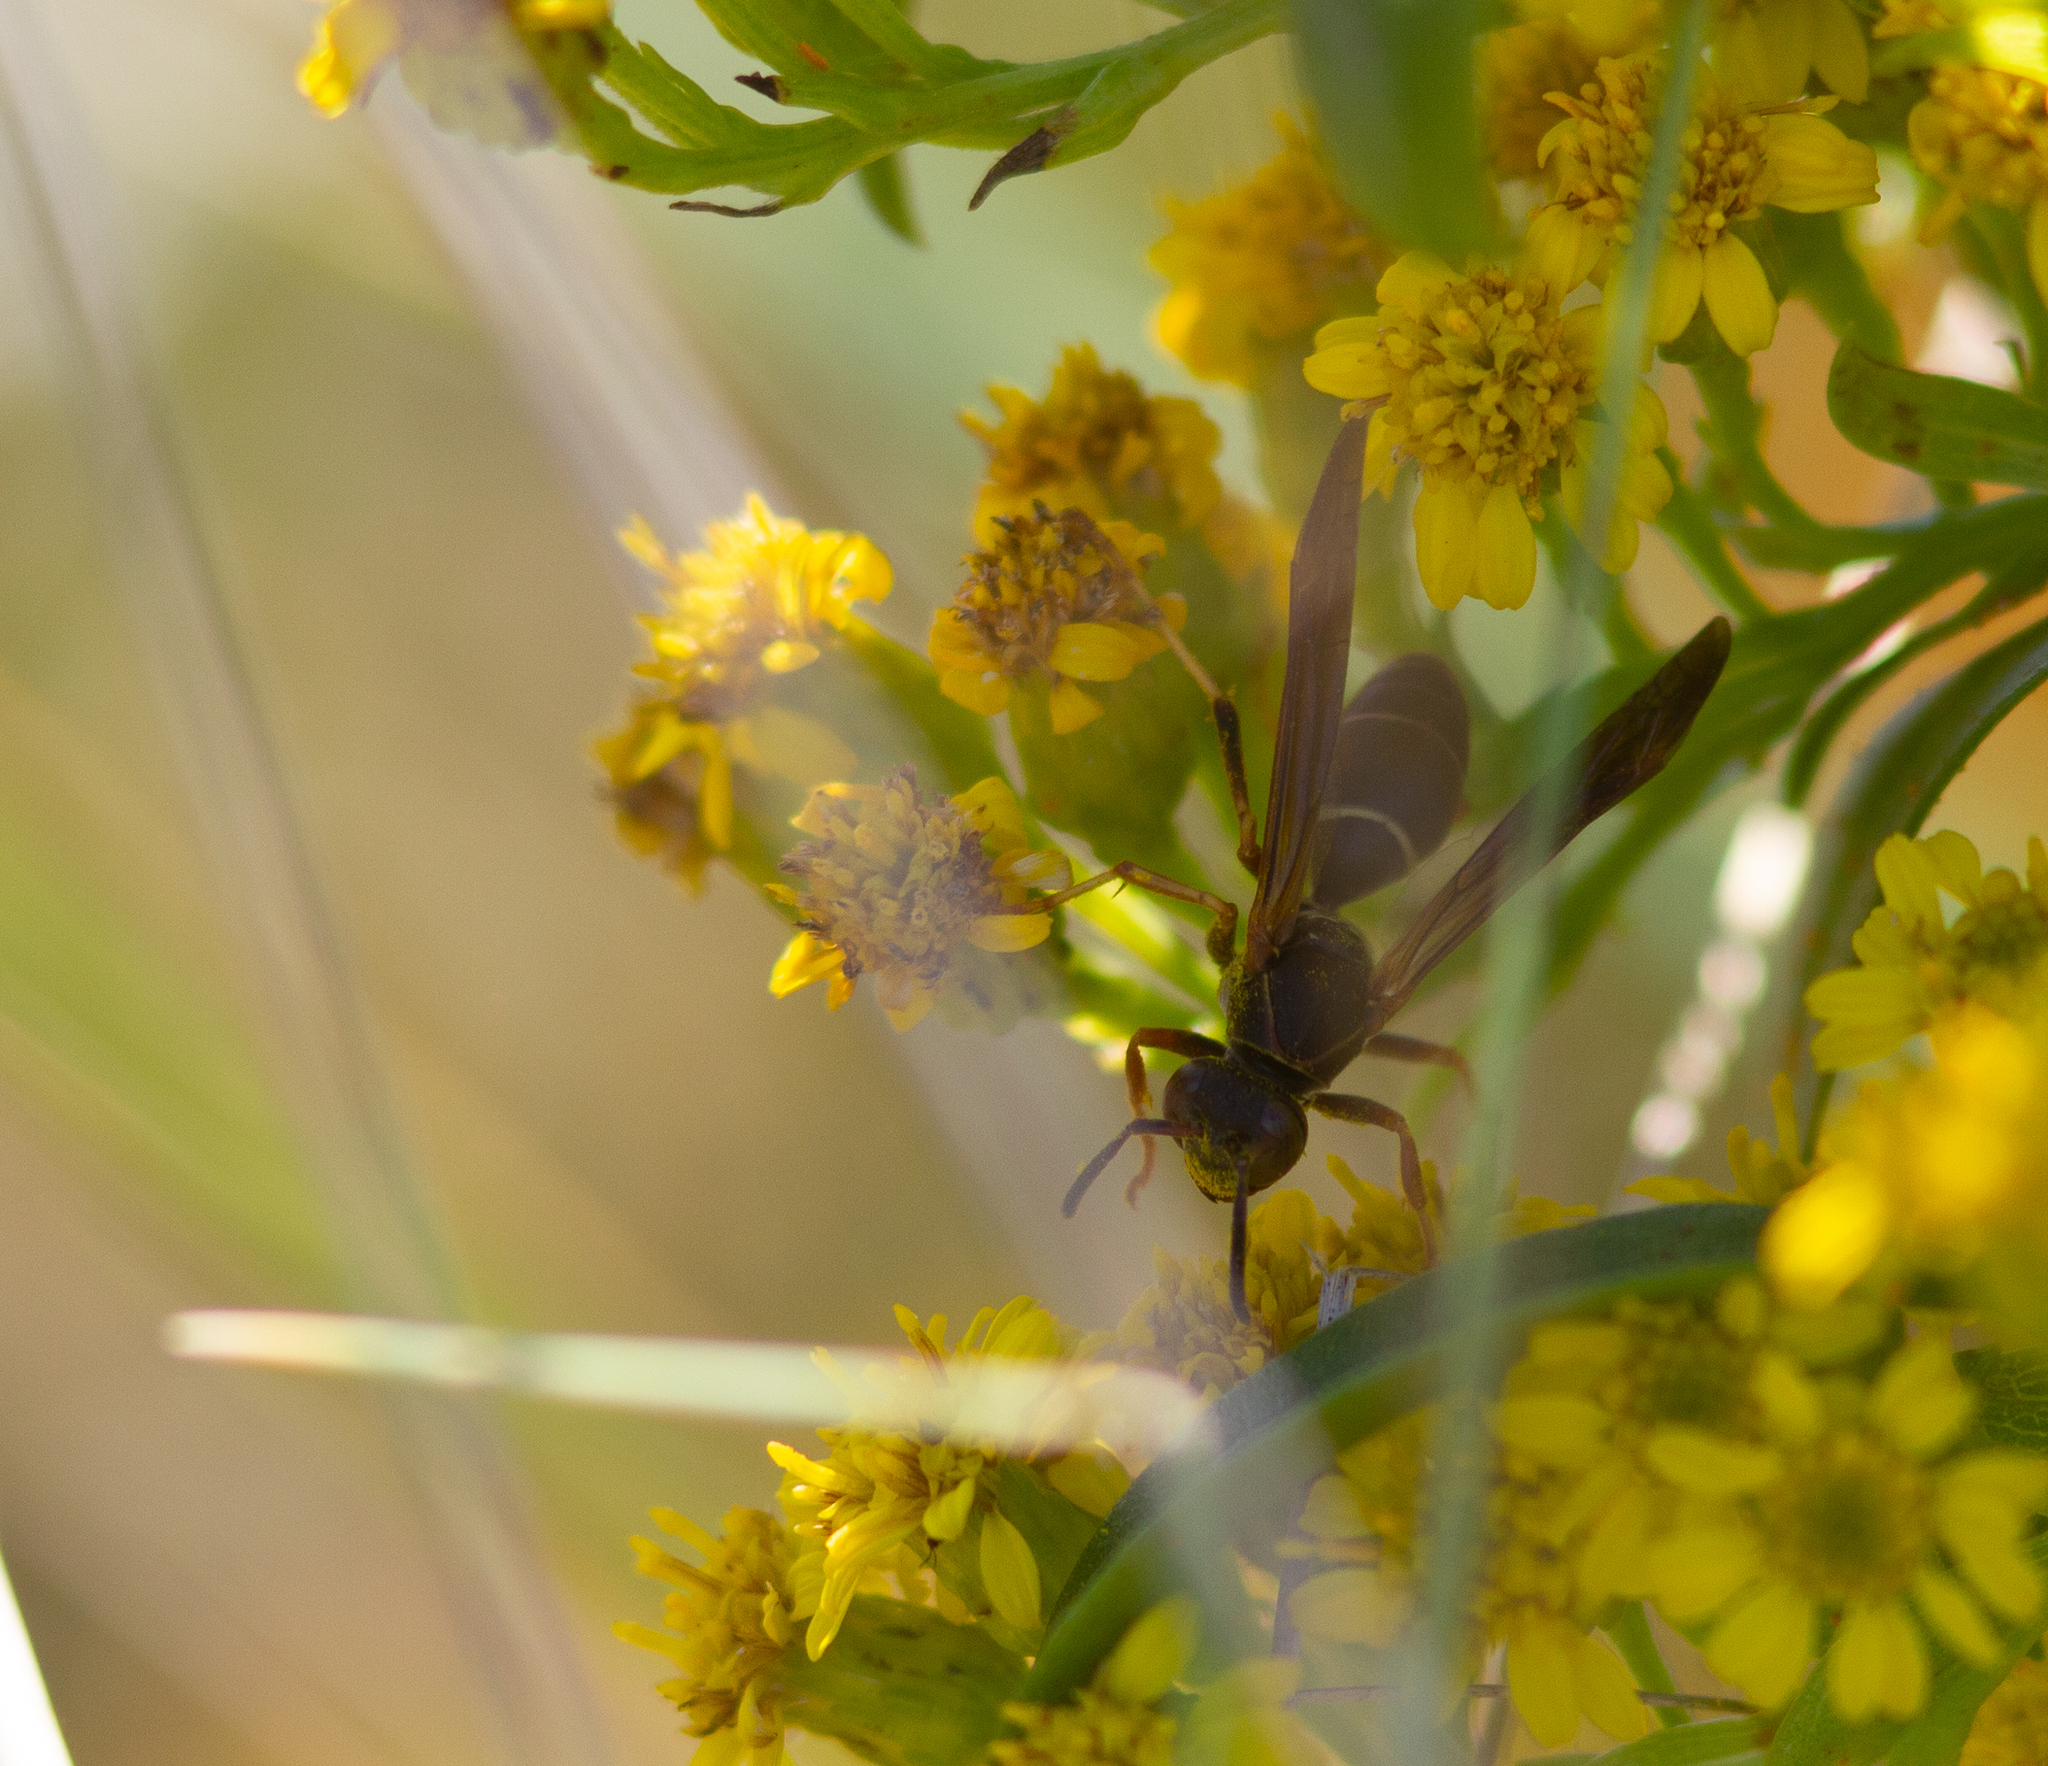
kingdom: Animalia
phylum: Arthropoda
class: Insecta
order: Hymenoptera
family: Eumenidae
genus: Polistes
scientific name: Polistes fuscatus
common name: Dark paper wasp
